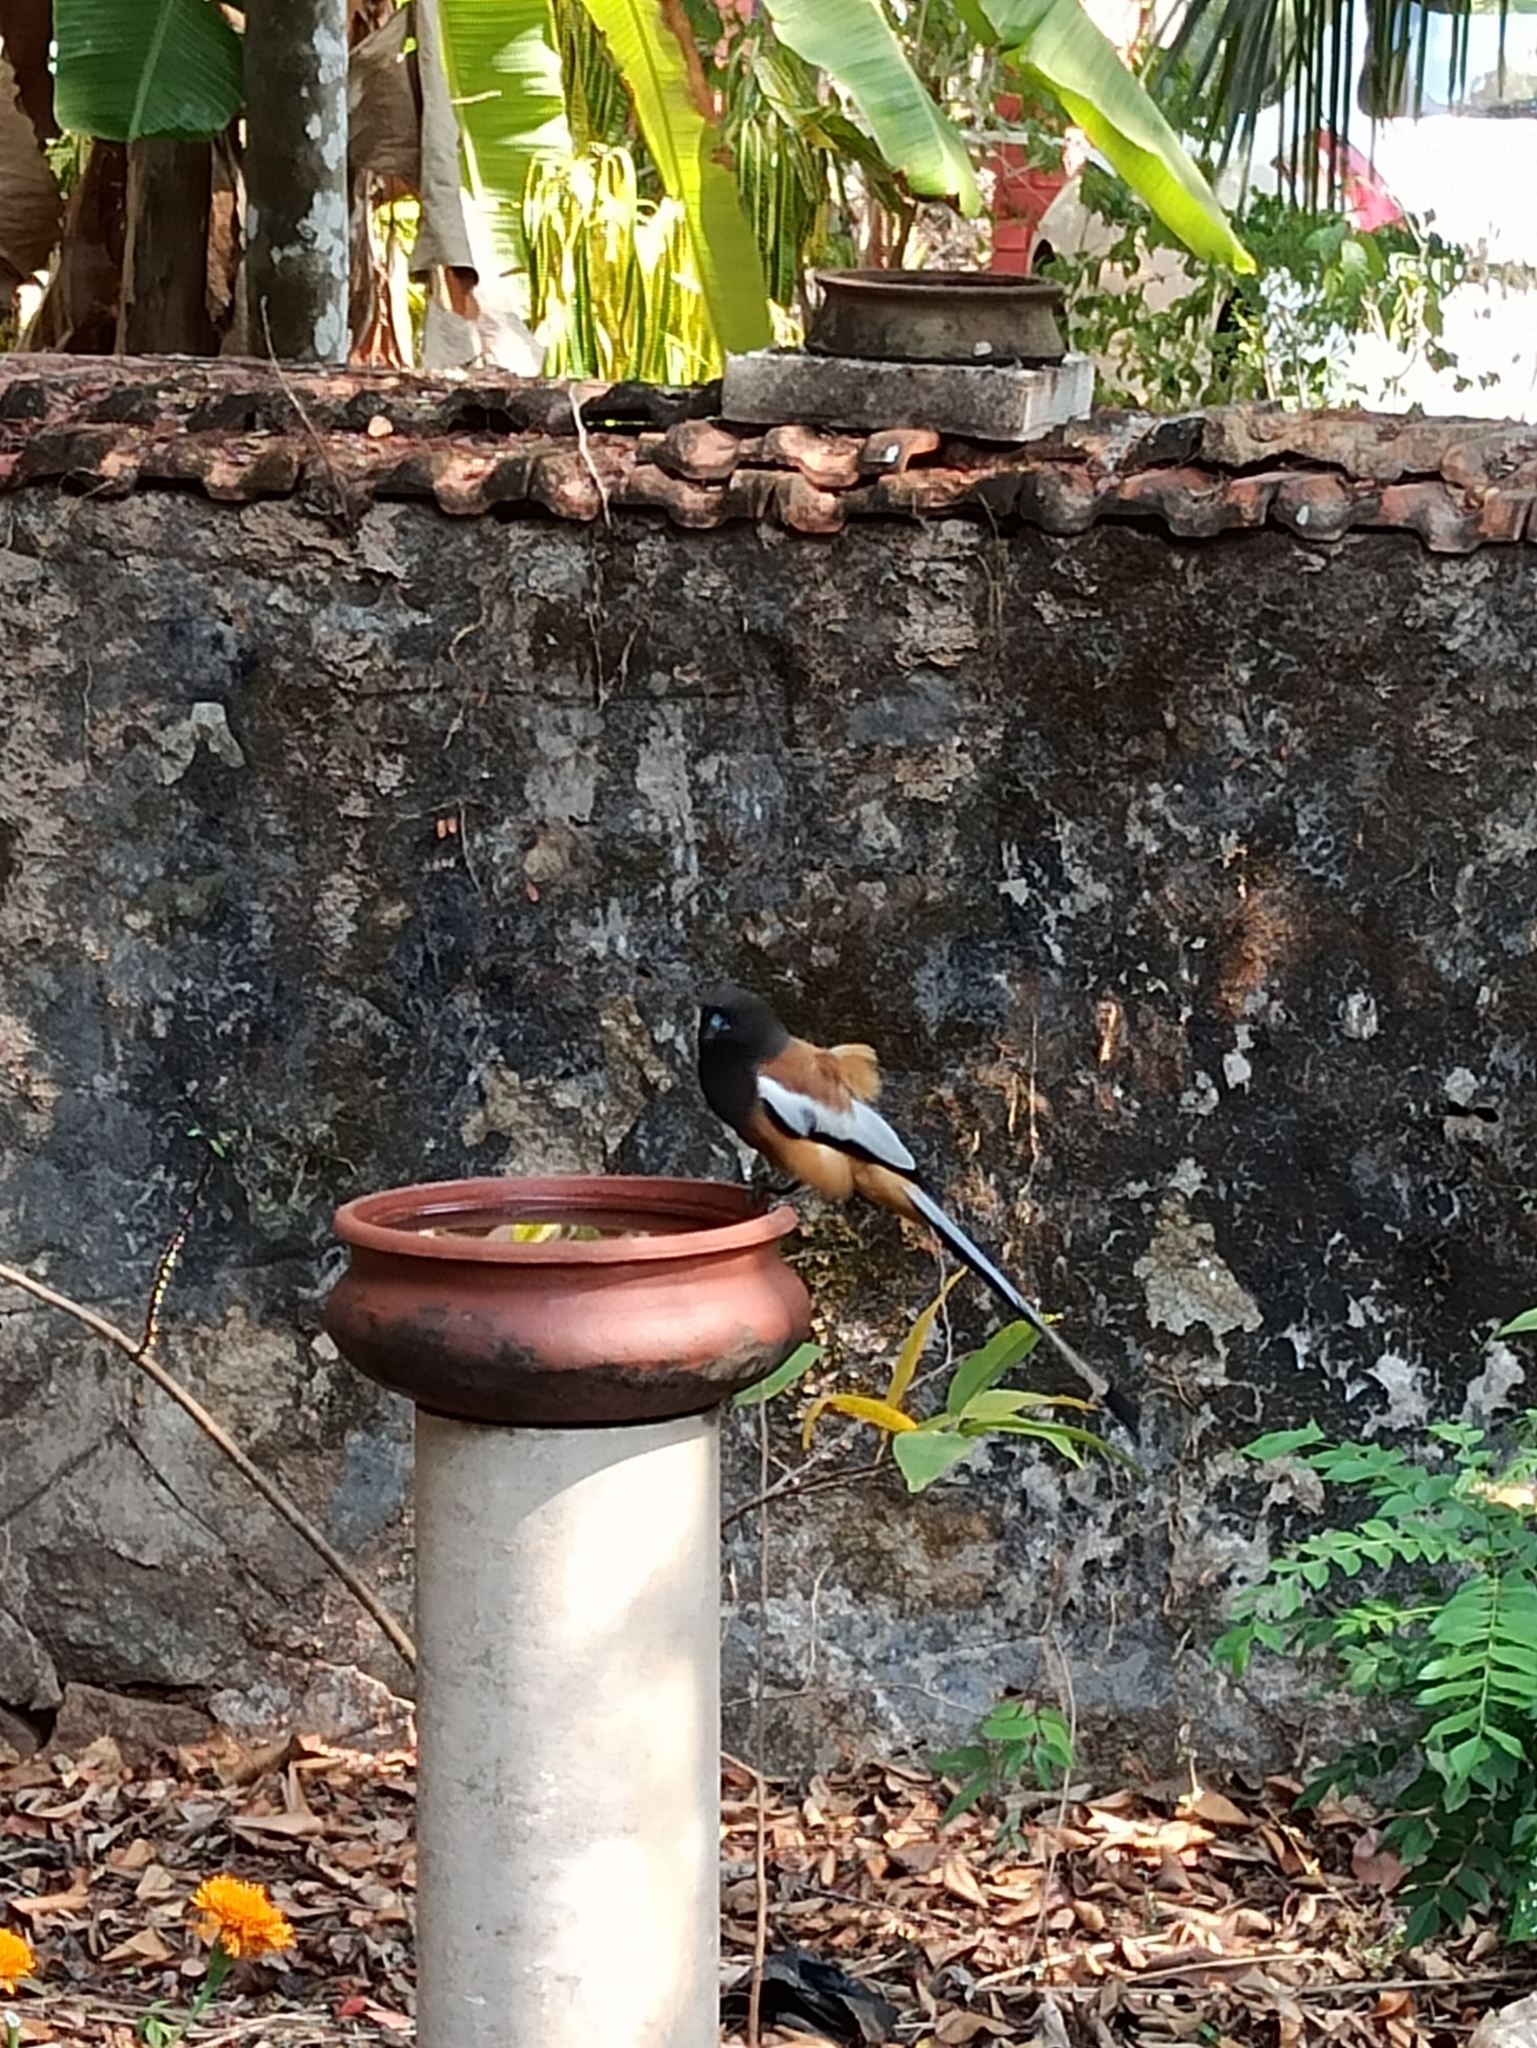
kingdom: Animalia
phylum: Chordata
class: Aves
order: Passeriformes
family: Corvidae
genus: Dendrocitta
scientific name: Dendrocitta vagabunda
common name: Rufous treepie
